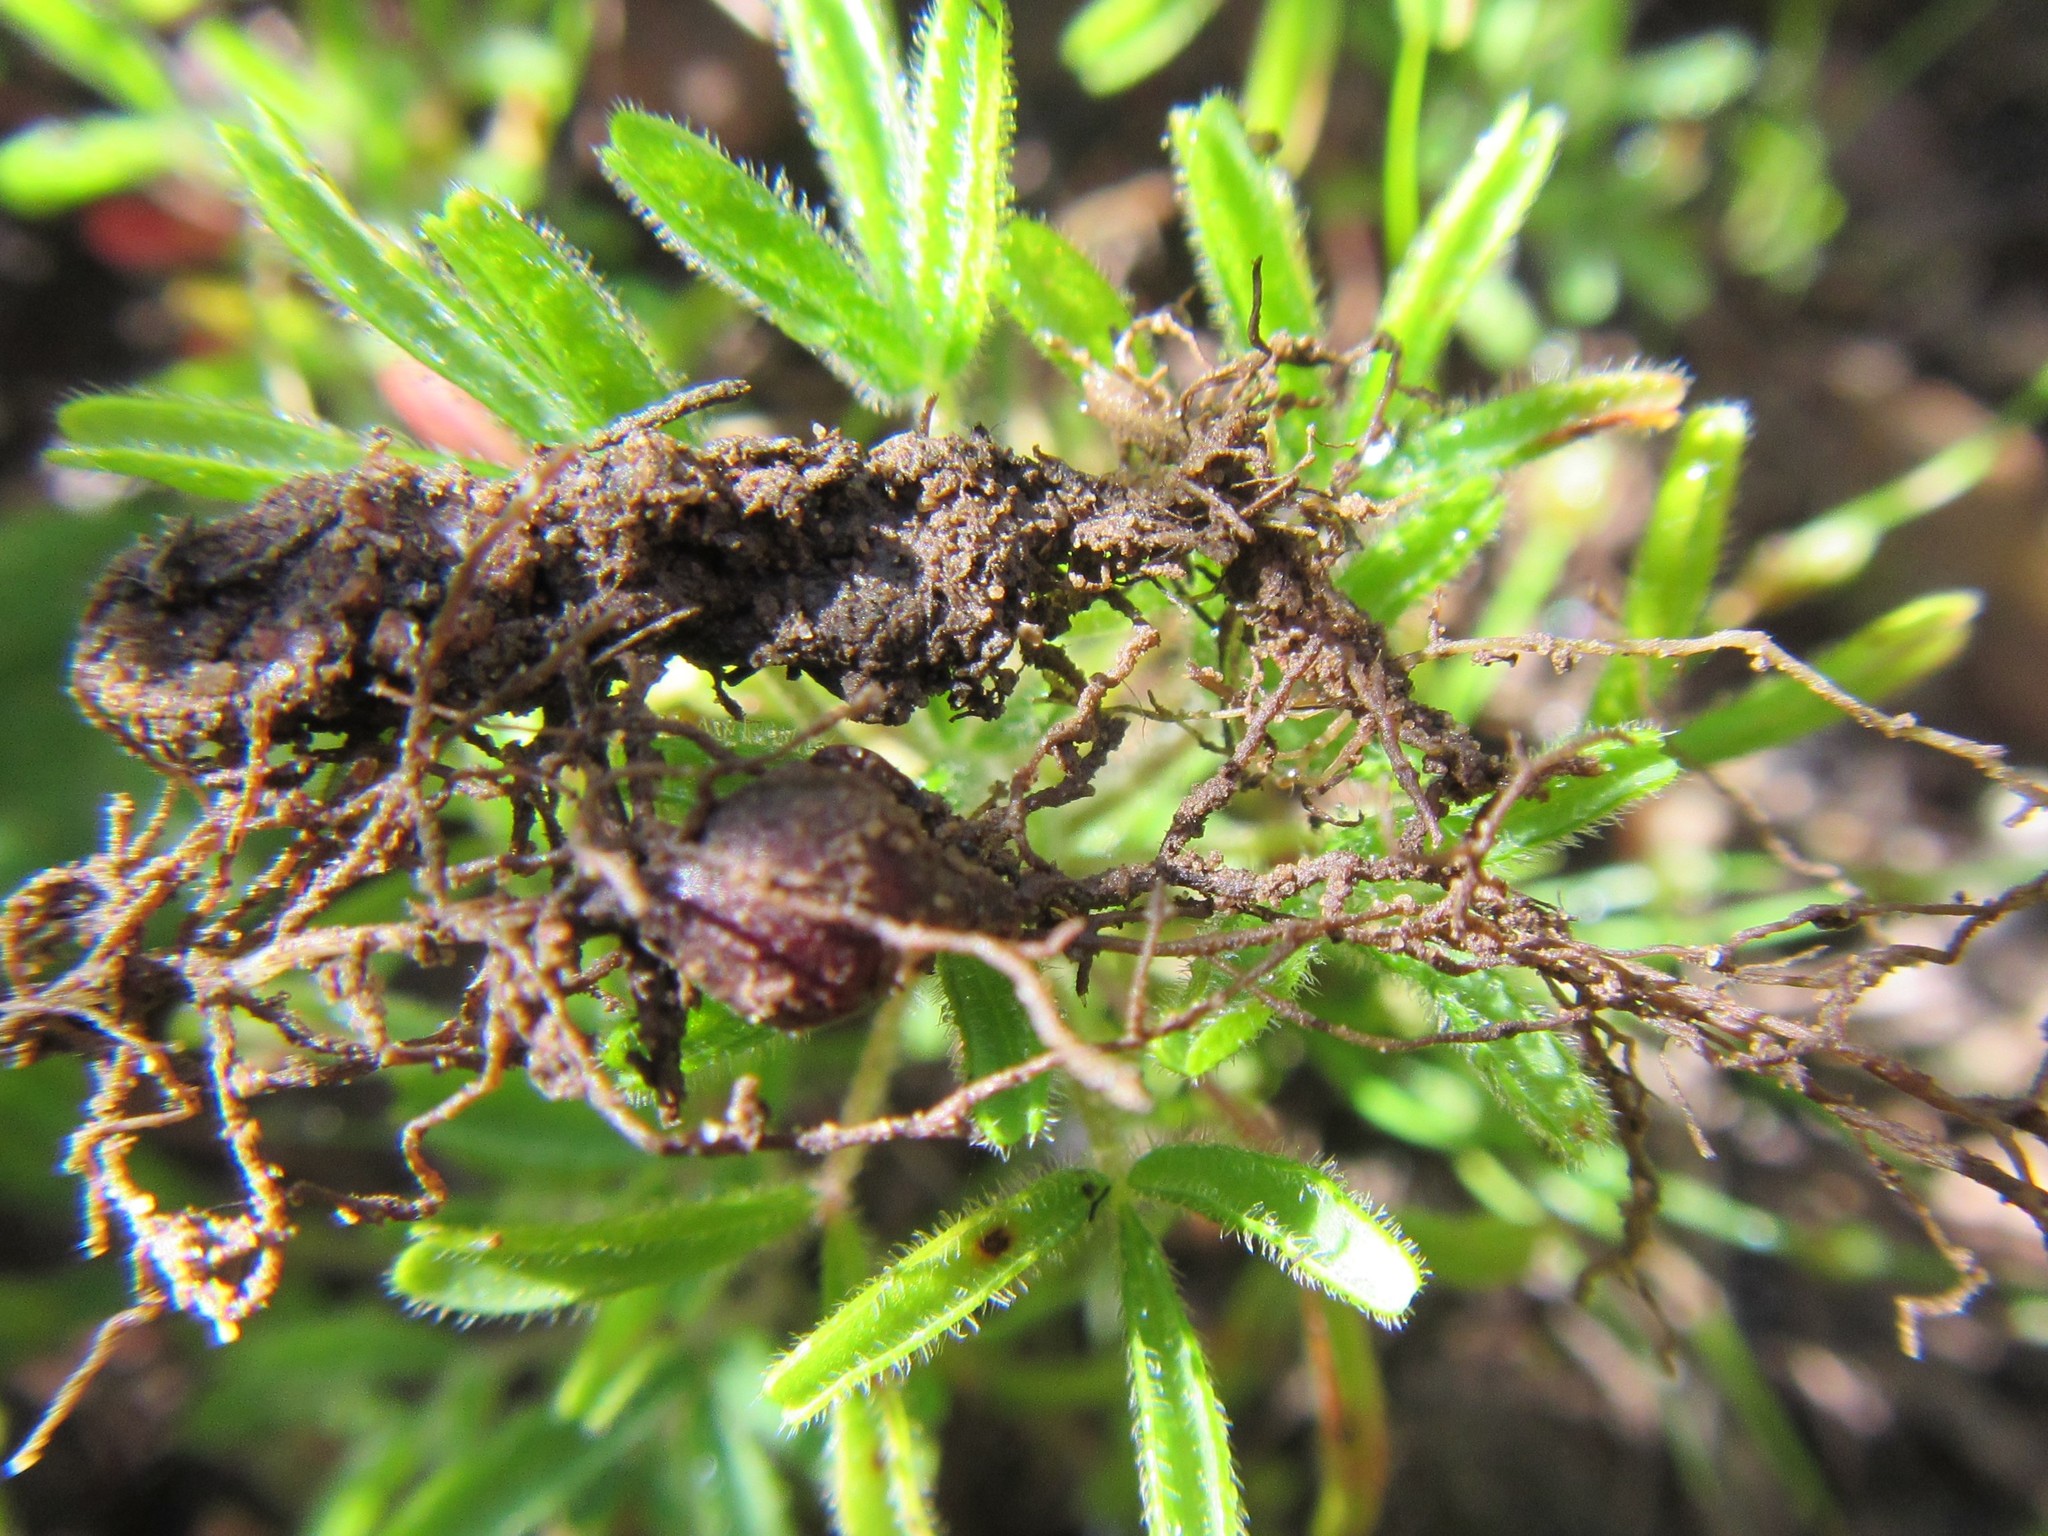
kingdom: Plantae
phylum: Tracheophyta
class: Magnoliopsida
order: Oxalidales
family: Oxalidaceae
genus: Oxalis
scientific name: Oxalis glabra
